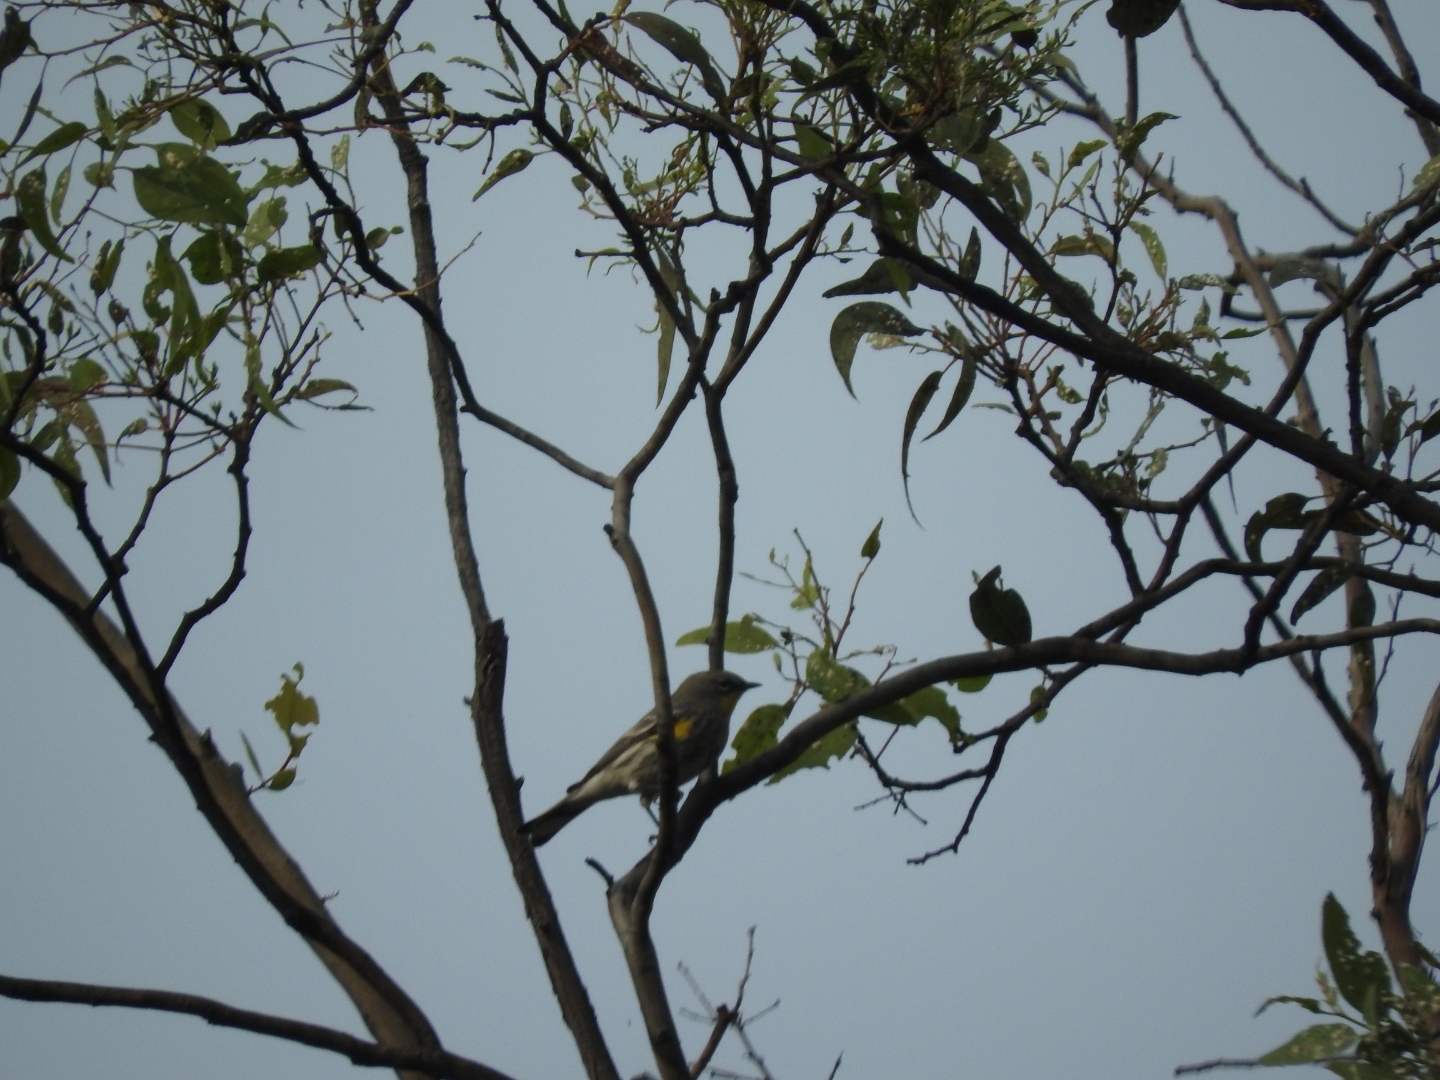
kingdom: Animalia
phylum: Chordata
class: Aves
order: Passeriformes
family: Parulidae
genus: Setophaga
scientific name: Setophaga auduboni
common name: Audubon's warbler
